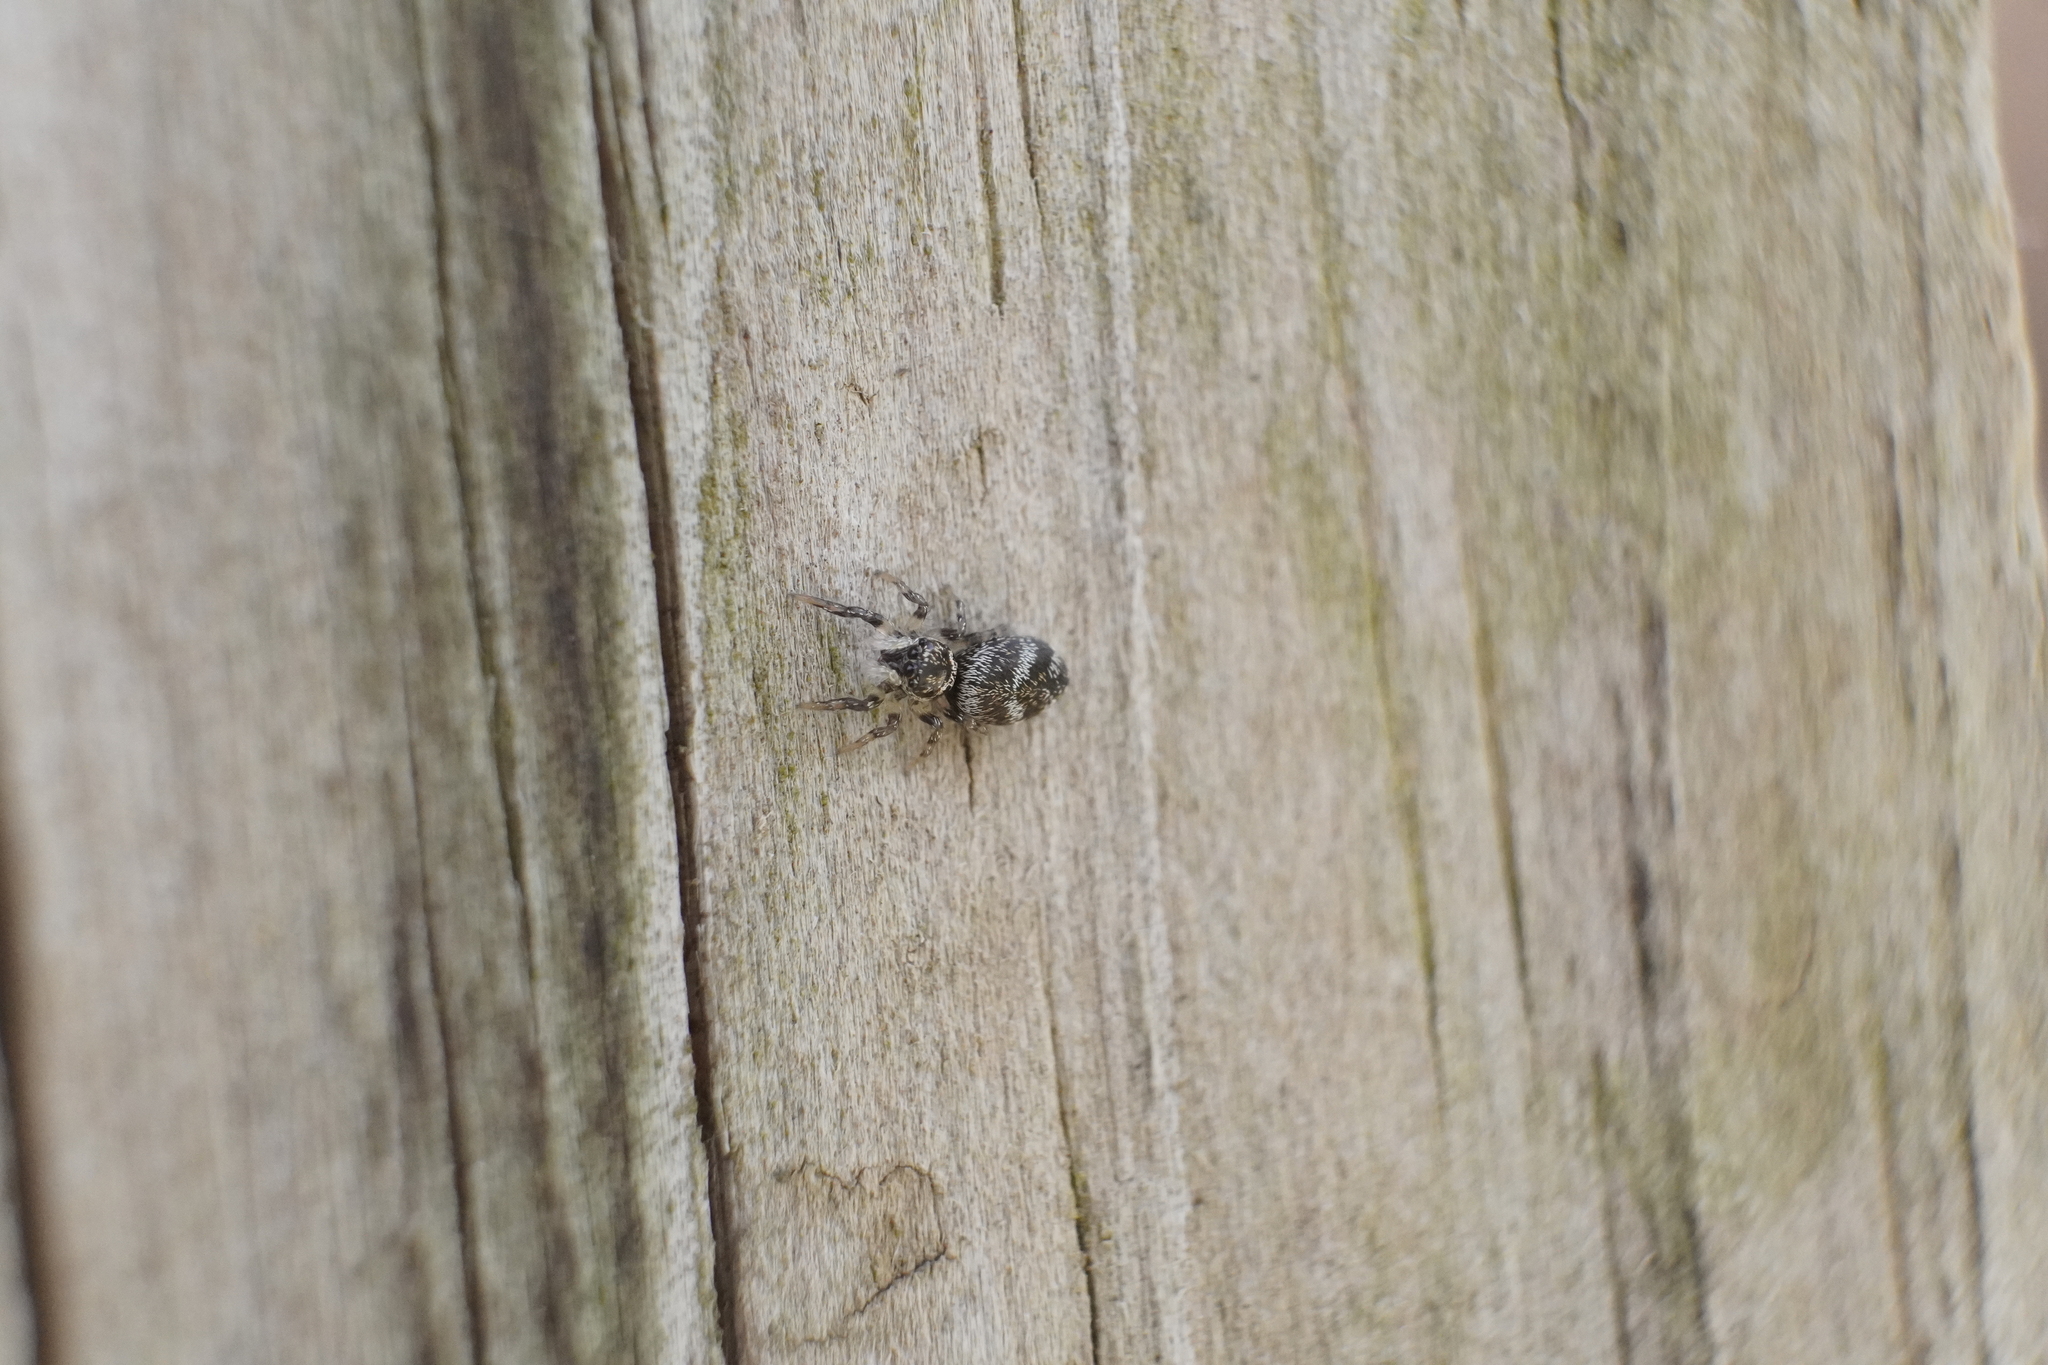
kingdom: Animalia
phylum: Arthropoda
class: Arachnida
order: Araneae
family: Salticidae
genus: Salticus
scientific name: Salticus scenicus
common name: Zebra jumper
